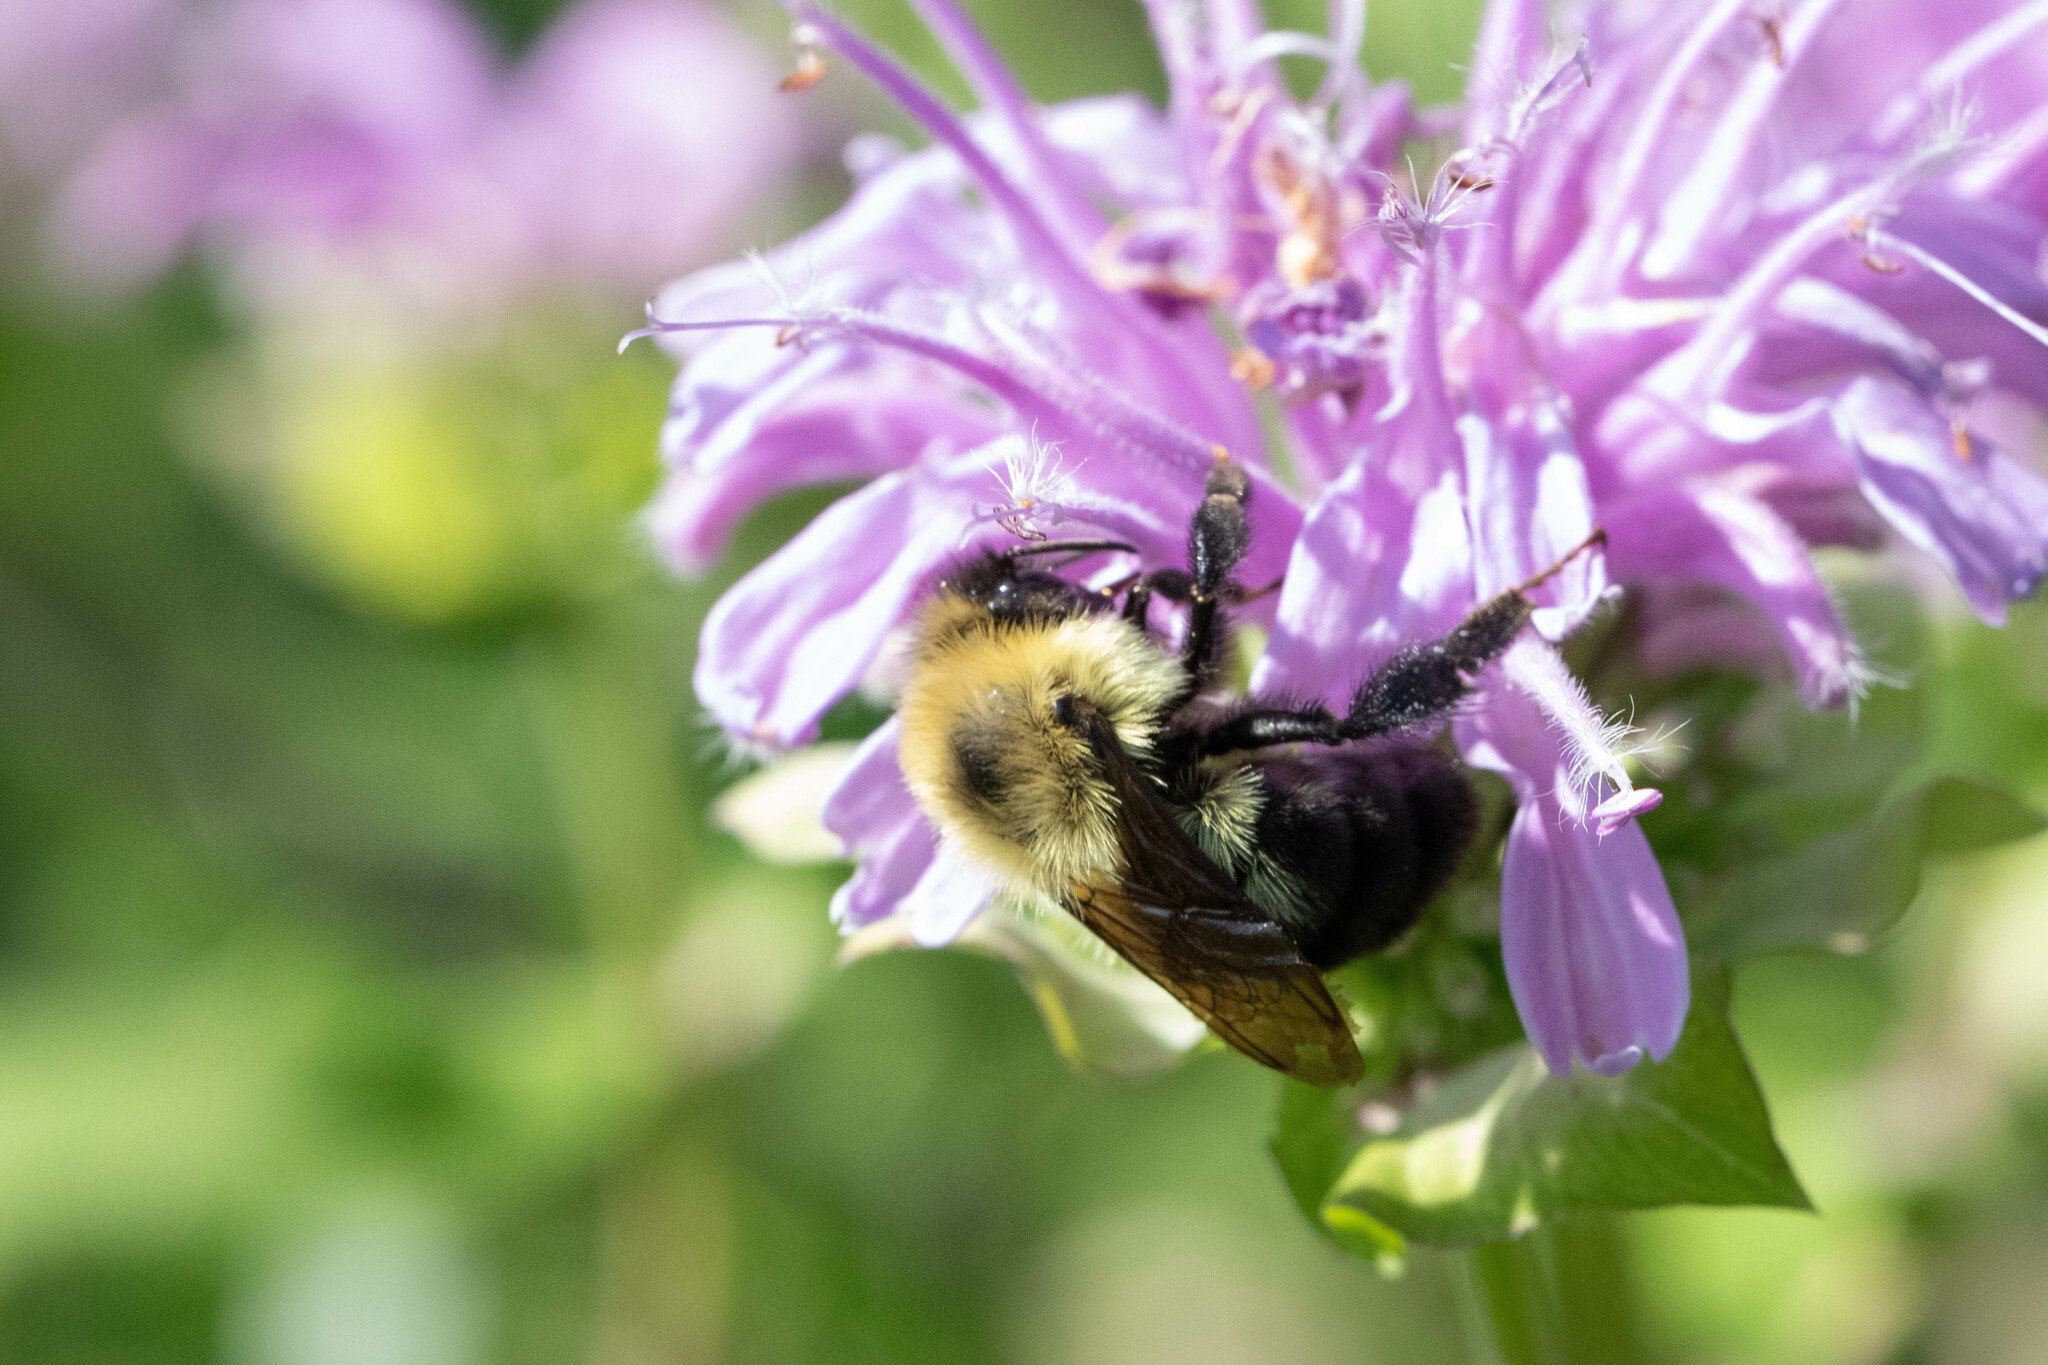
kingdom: Animalia
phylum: Arthropoda
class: Insecta
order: Hymenoptera
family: Apidae
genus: Bombus
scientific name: Bombus bimaculatus
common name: Two-spotted bumble bee
